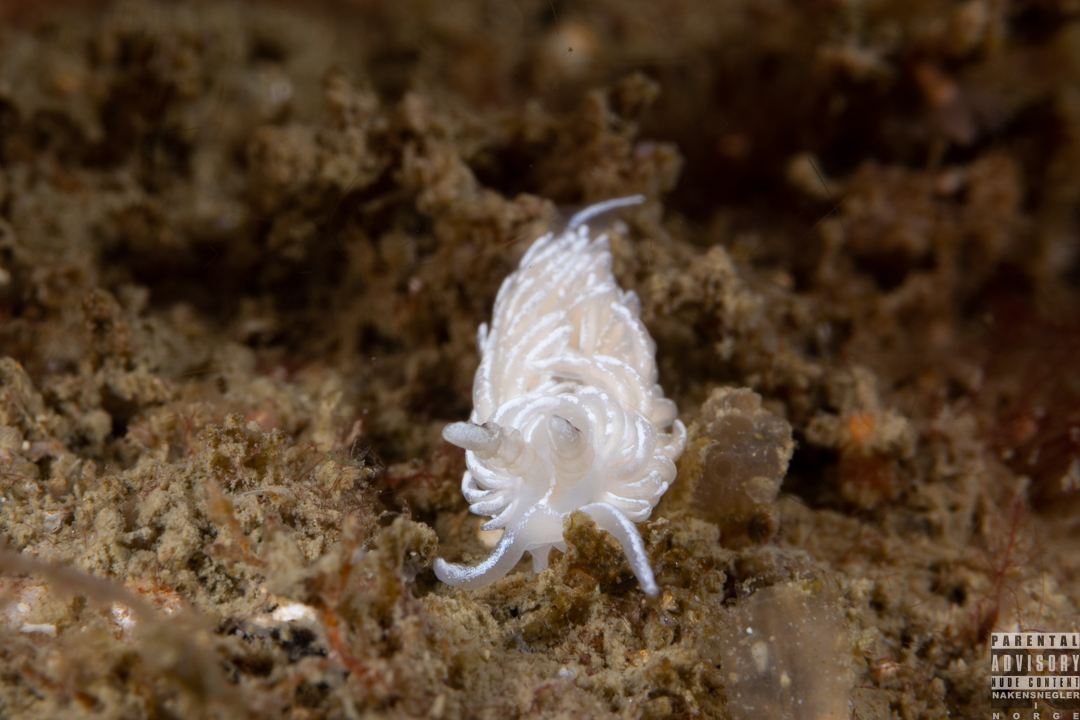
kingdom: Animalia
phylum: Mollusca
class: Gastropoda
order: Nudibranchia
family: Facelinidae
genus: Favorinus
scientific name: Favorinus blianus
